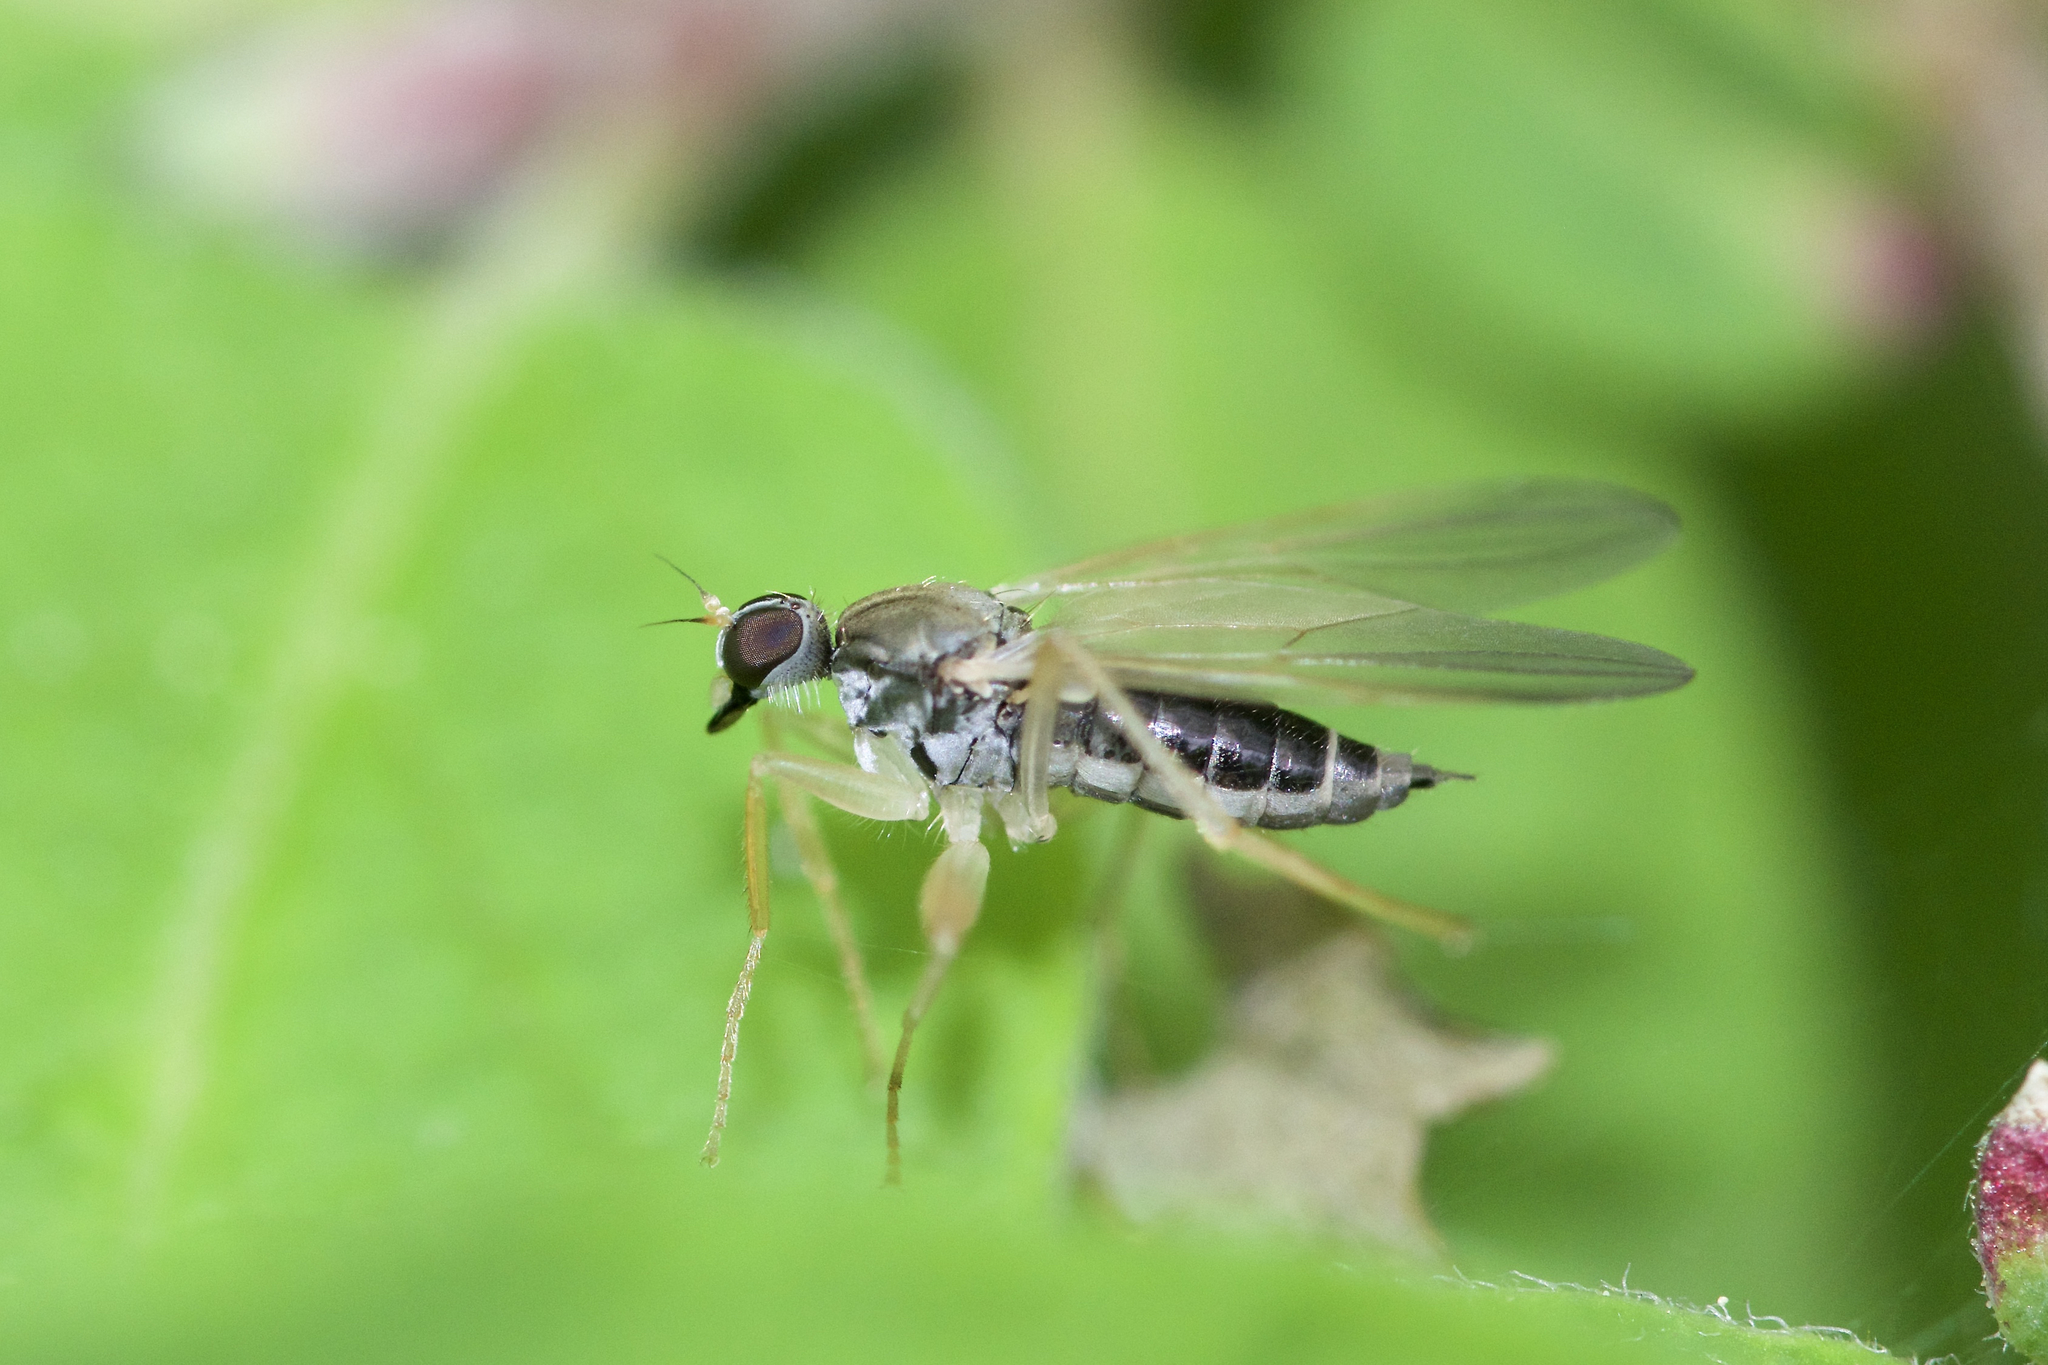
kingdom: Animalia
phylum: Arthropoda
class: Insecta
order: Diptera
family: Hybotidae
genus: Platypalpus
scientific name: Platypalpus
